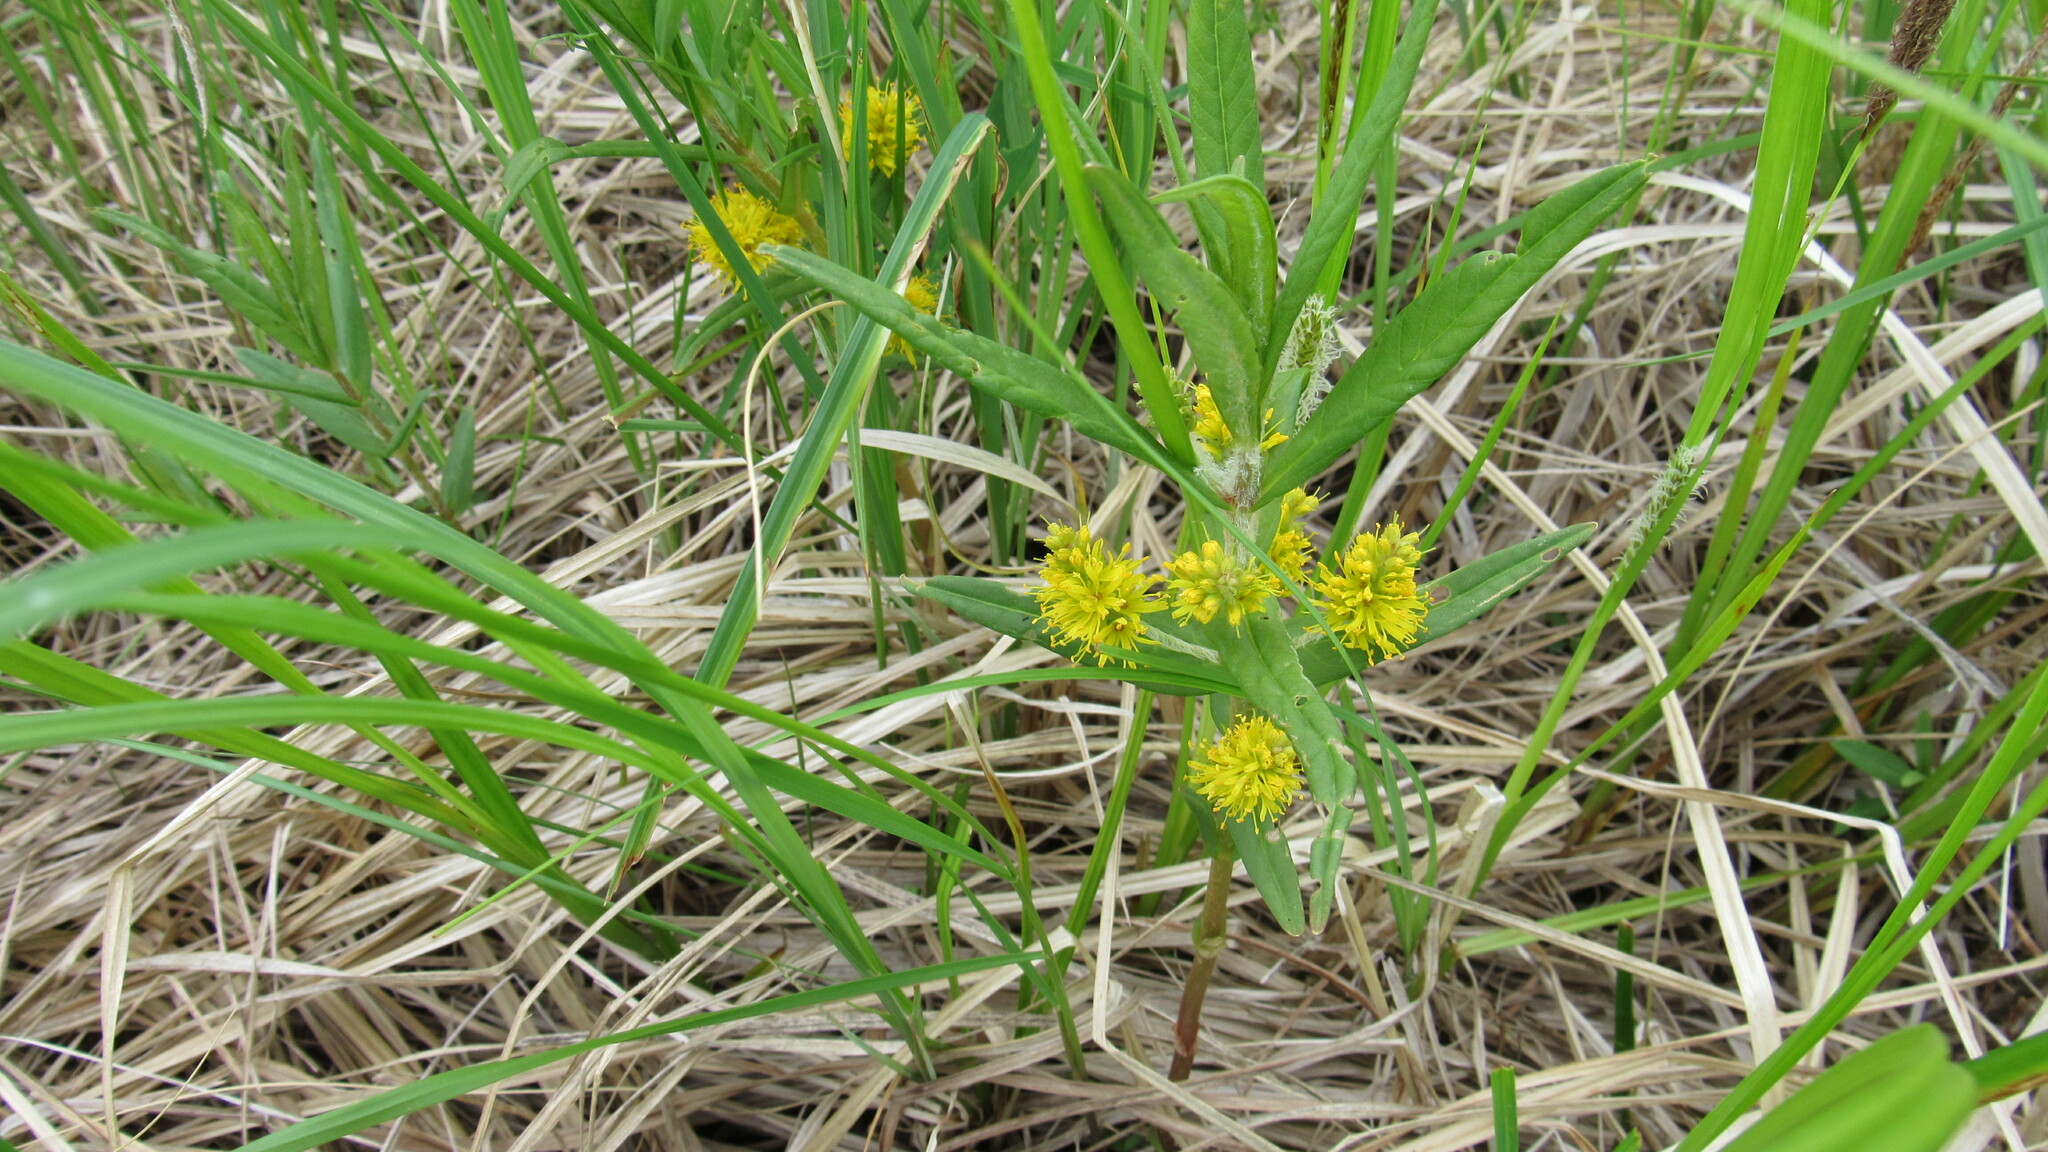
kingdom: Plantae
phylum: Tracheophyta
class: Magnoliopsida
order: Ericales
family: Primulaceae
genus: Lysimachia
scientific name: Lysimachia thyrsiflora
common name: Tufted loosestrife
